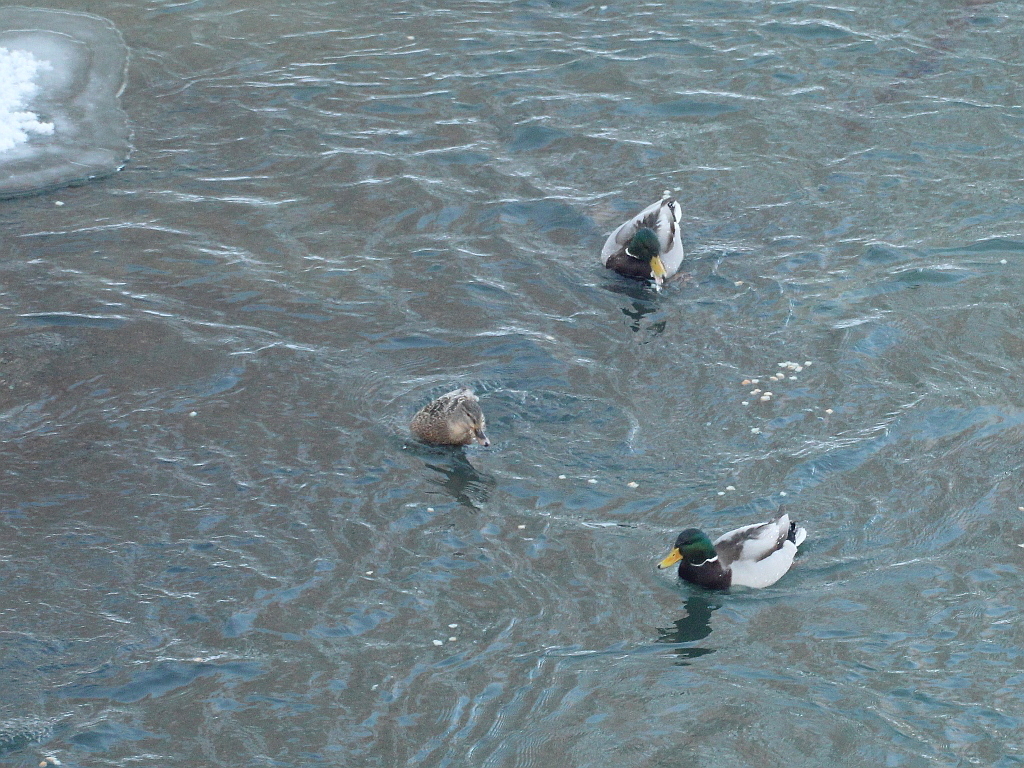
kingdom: Animalia
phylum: Chordata
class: Aves
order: Anseriformes
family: Anatidae
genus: Anas
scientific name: Anas platyrhynchos
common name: Mallard
